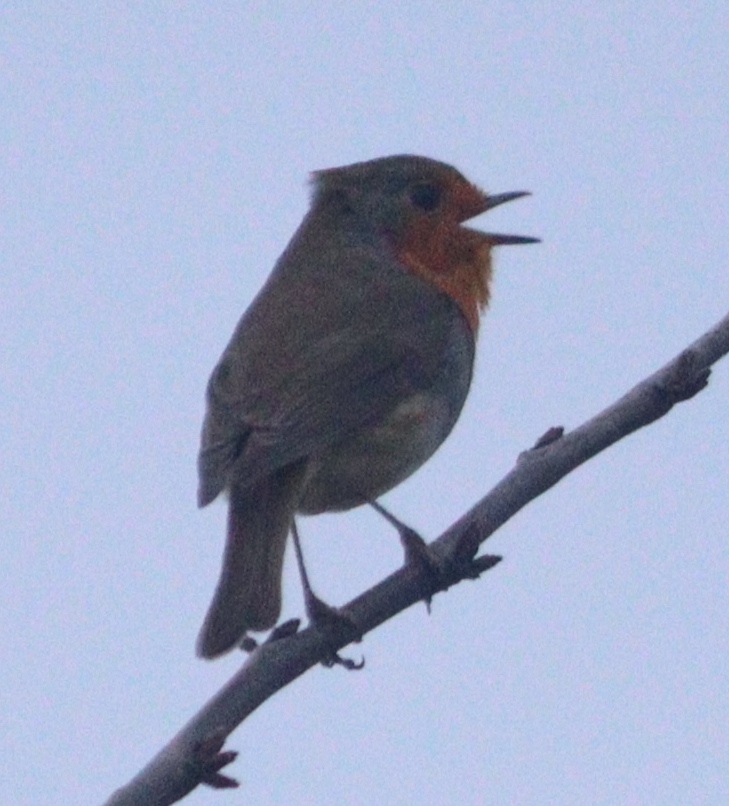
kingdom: Animalia
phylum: Chordata
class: Aves
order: Passeriformes
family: Muscicapidae
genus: Erithacus
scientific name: Erithacus rubecula
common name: European robin
